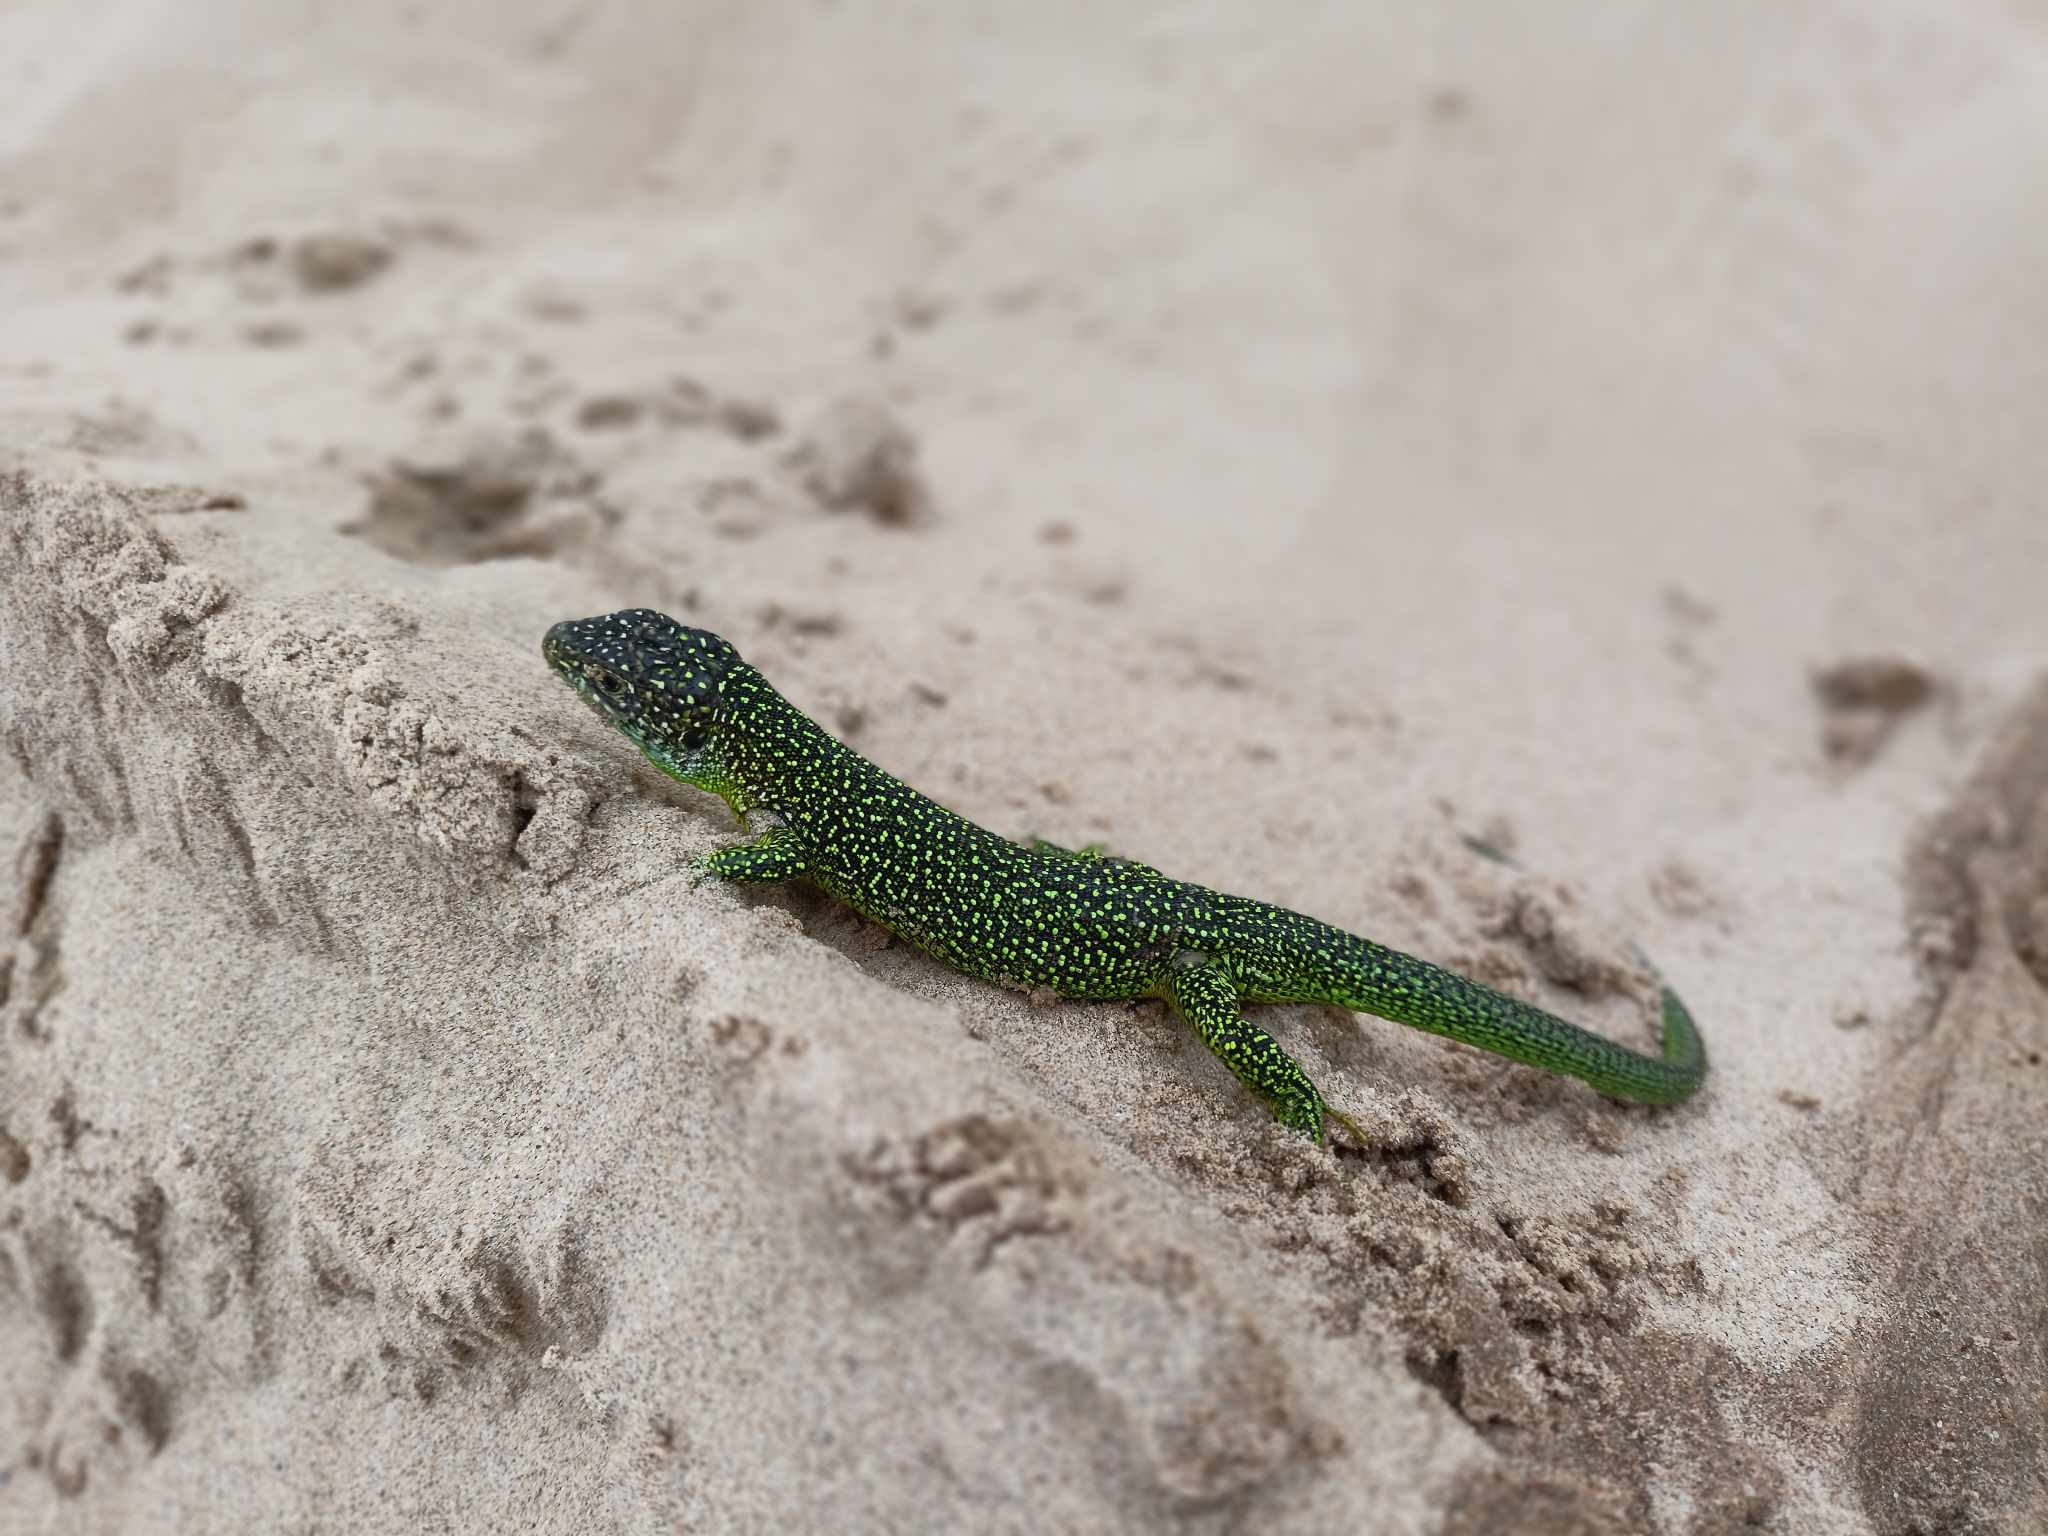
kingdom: Animalia
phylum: Chordata
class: Squamata
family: Lacertidae
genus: Lacerta
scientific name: Lacerta bilineata
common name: Western green lizard
